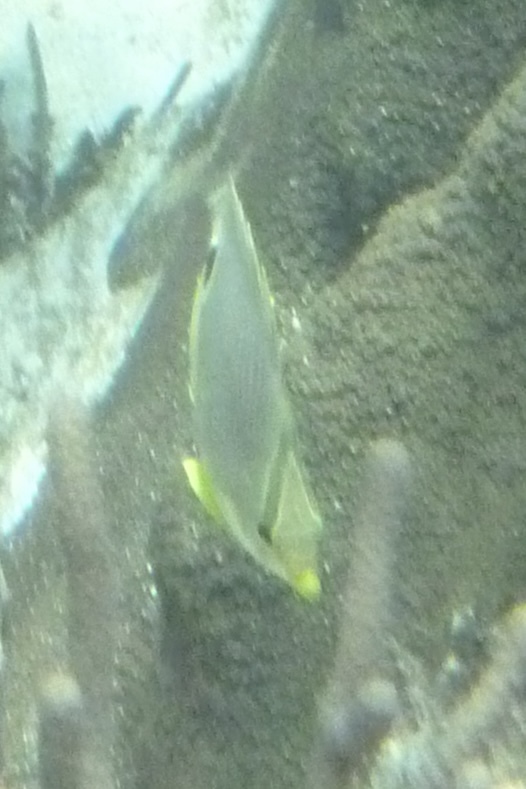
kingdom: Animalia
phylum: Chordata
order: Perciformes
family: Chaetodontidae
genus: Chaetodon
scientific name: Chaetodon capistratus
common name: Kete
